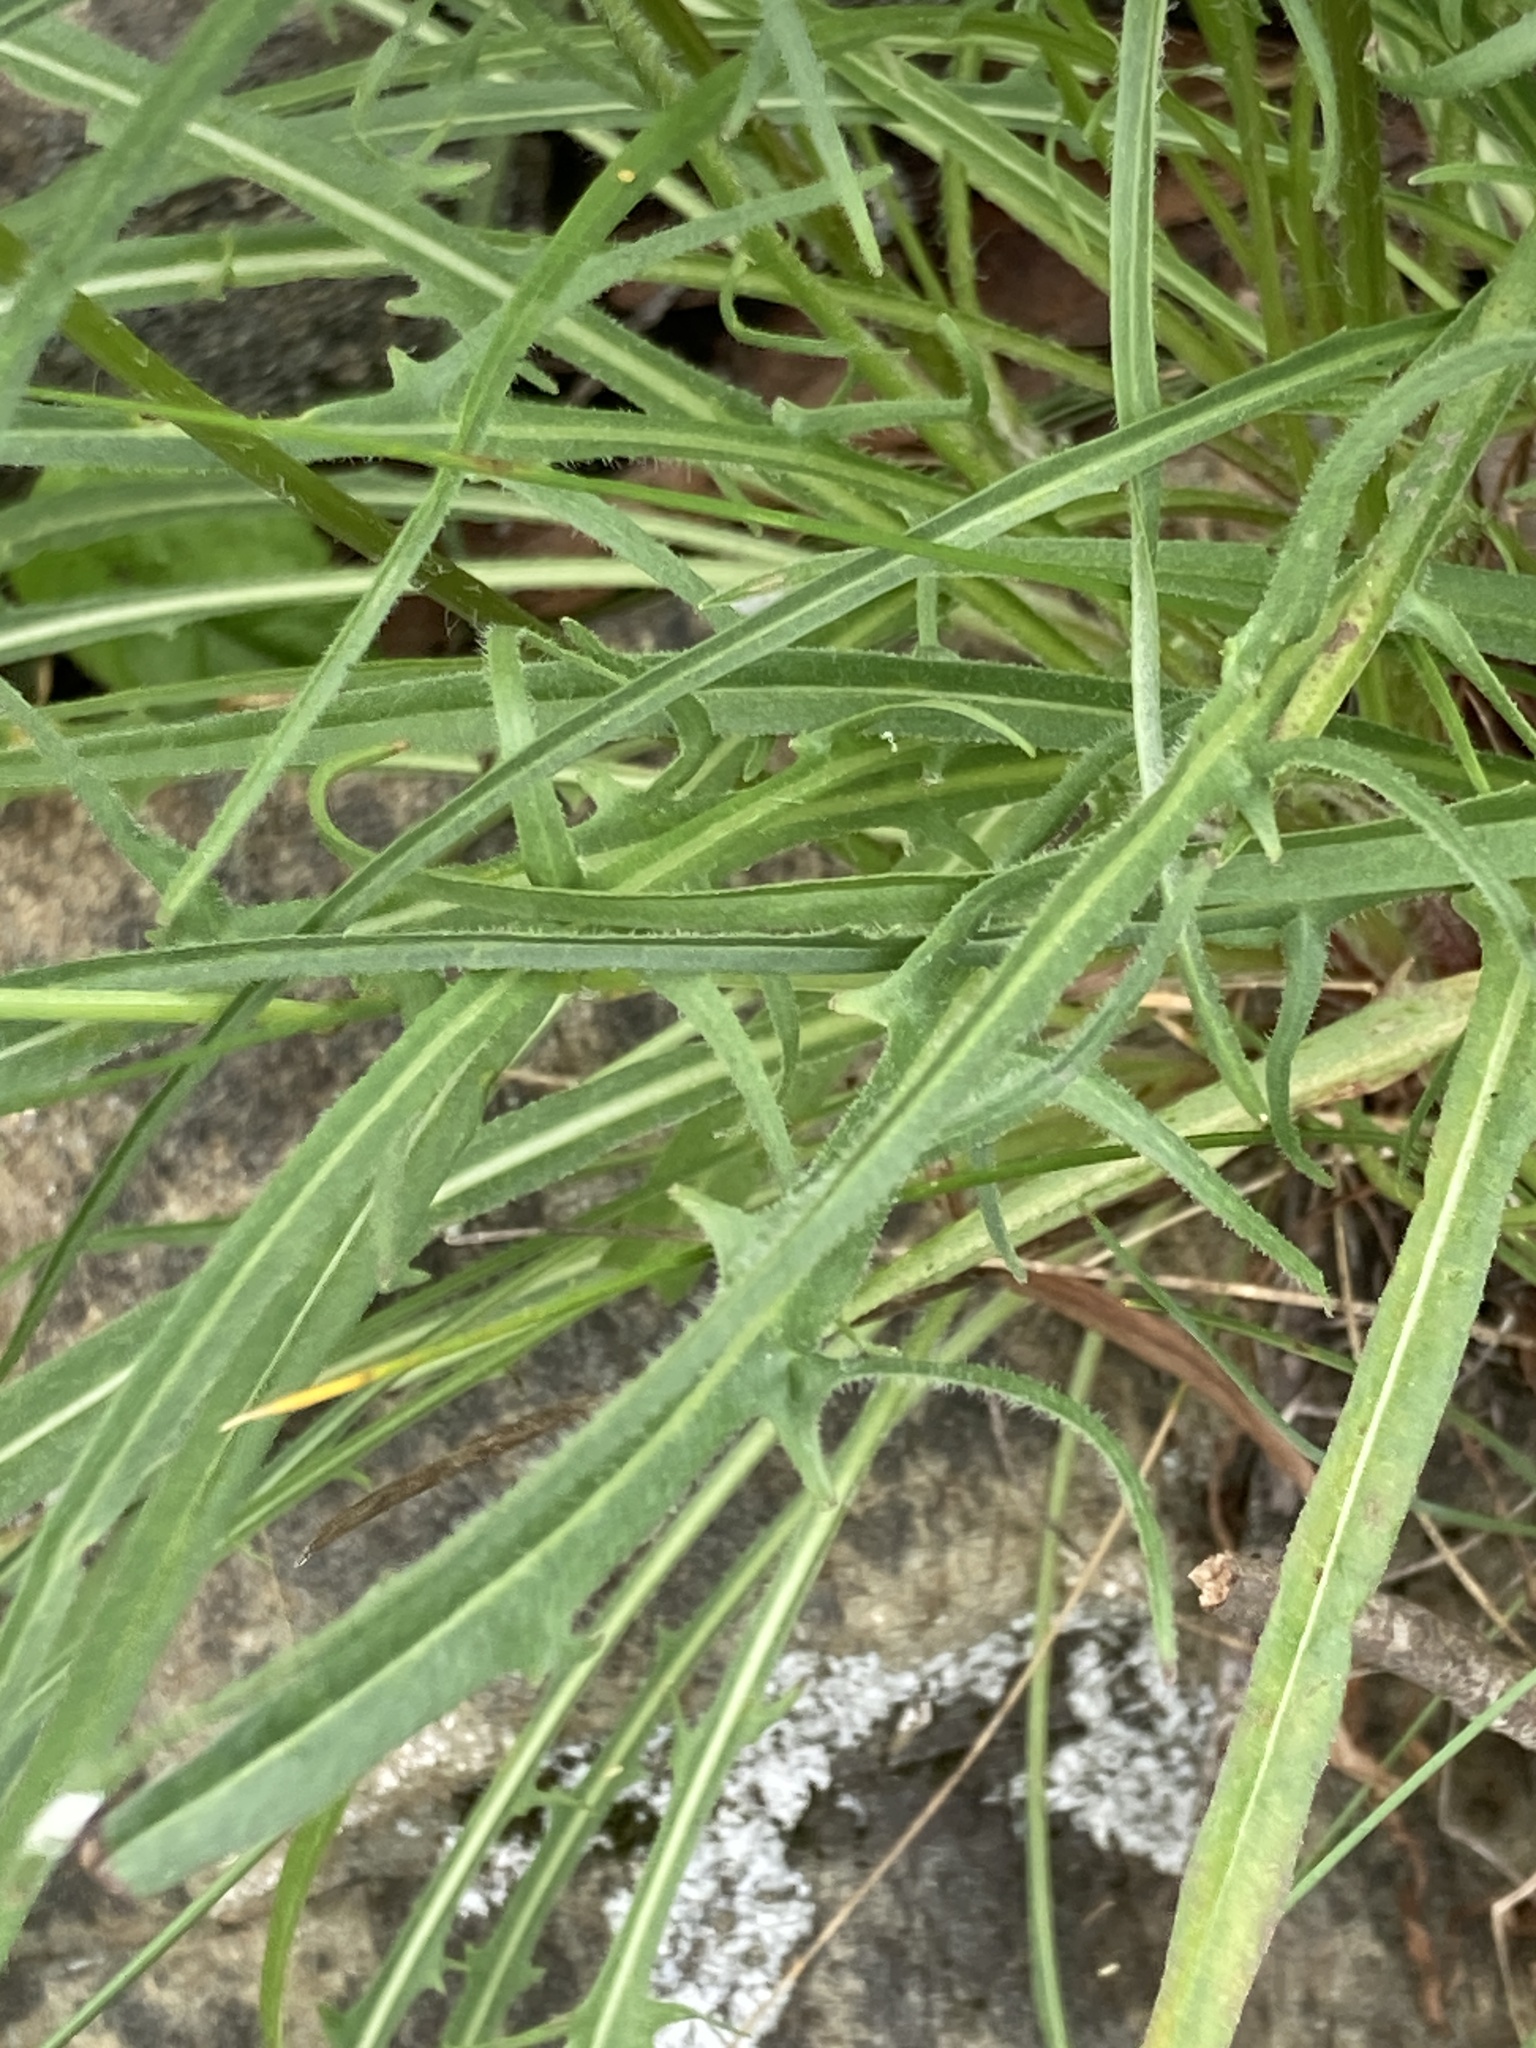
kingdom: Plantae
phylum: Tracheophyta
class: Magnoliopsida
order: Asterales
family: Asteraceae
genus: Agoseris
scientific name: Agoseris grandiflora
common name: Grassland agoseris
